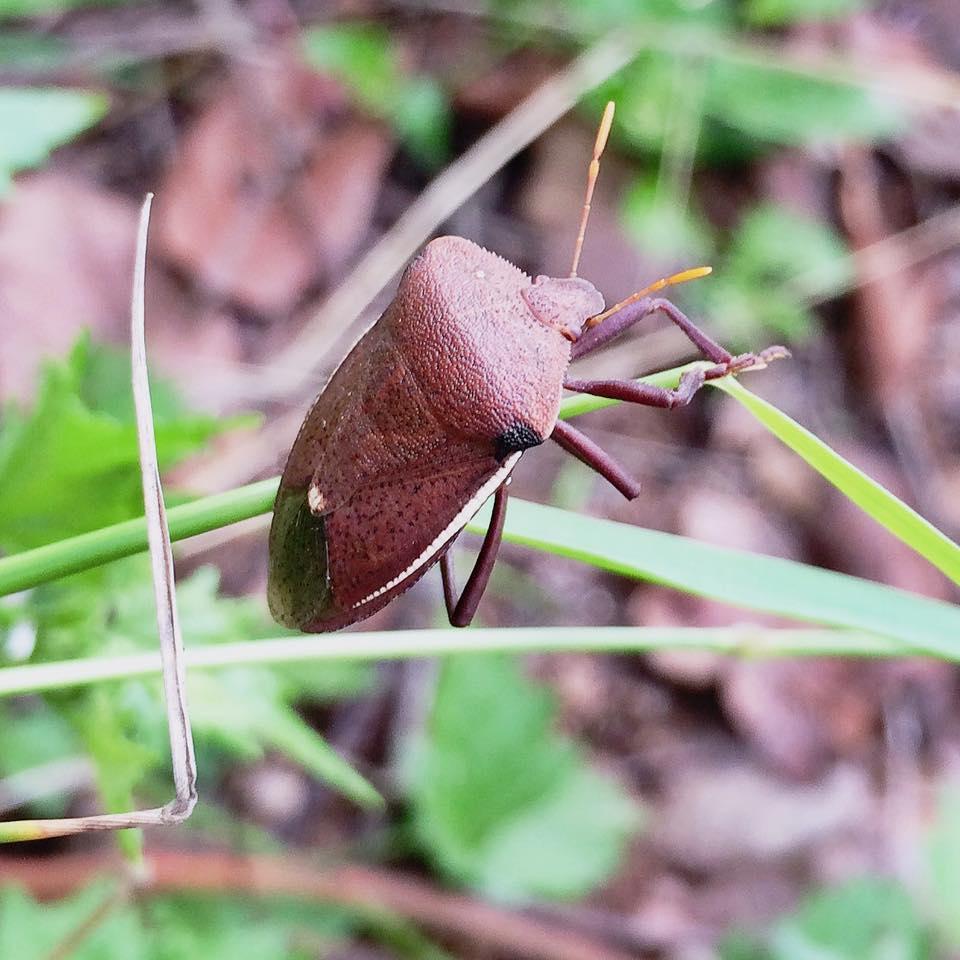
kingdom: Animalia
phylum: Arthropoda
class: Insecta
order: Hemiptera
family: Pentatomidae
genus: Basicryptus
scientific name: Basicryptus costalis
